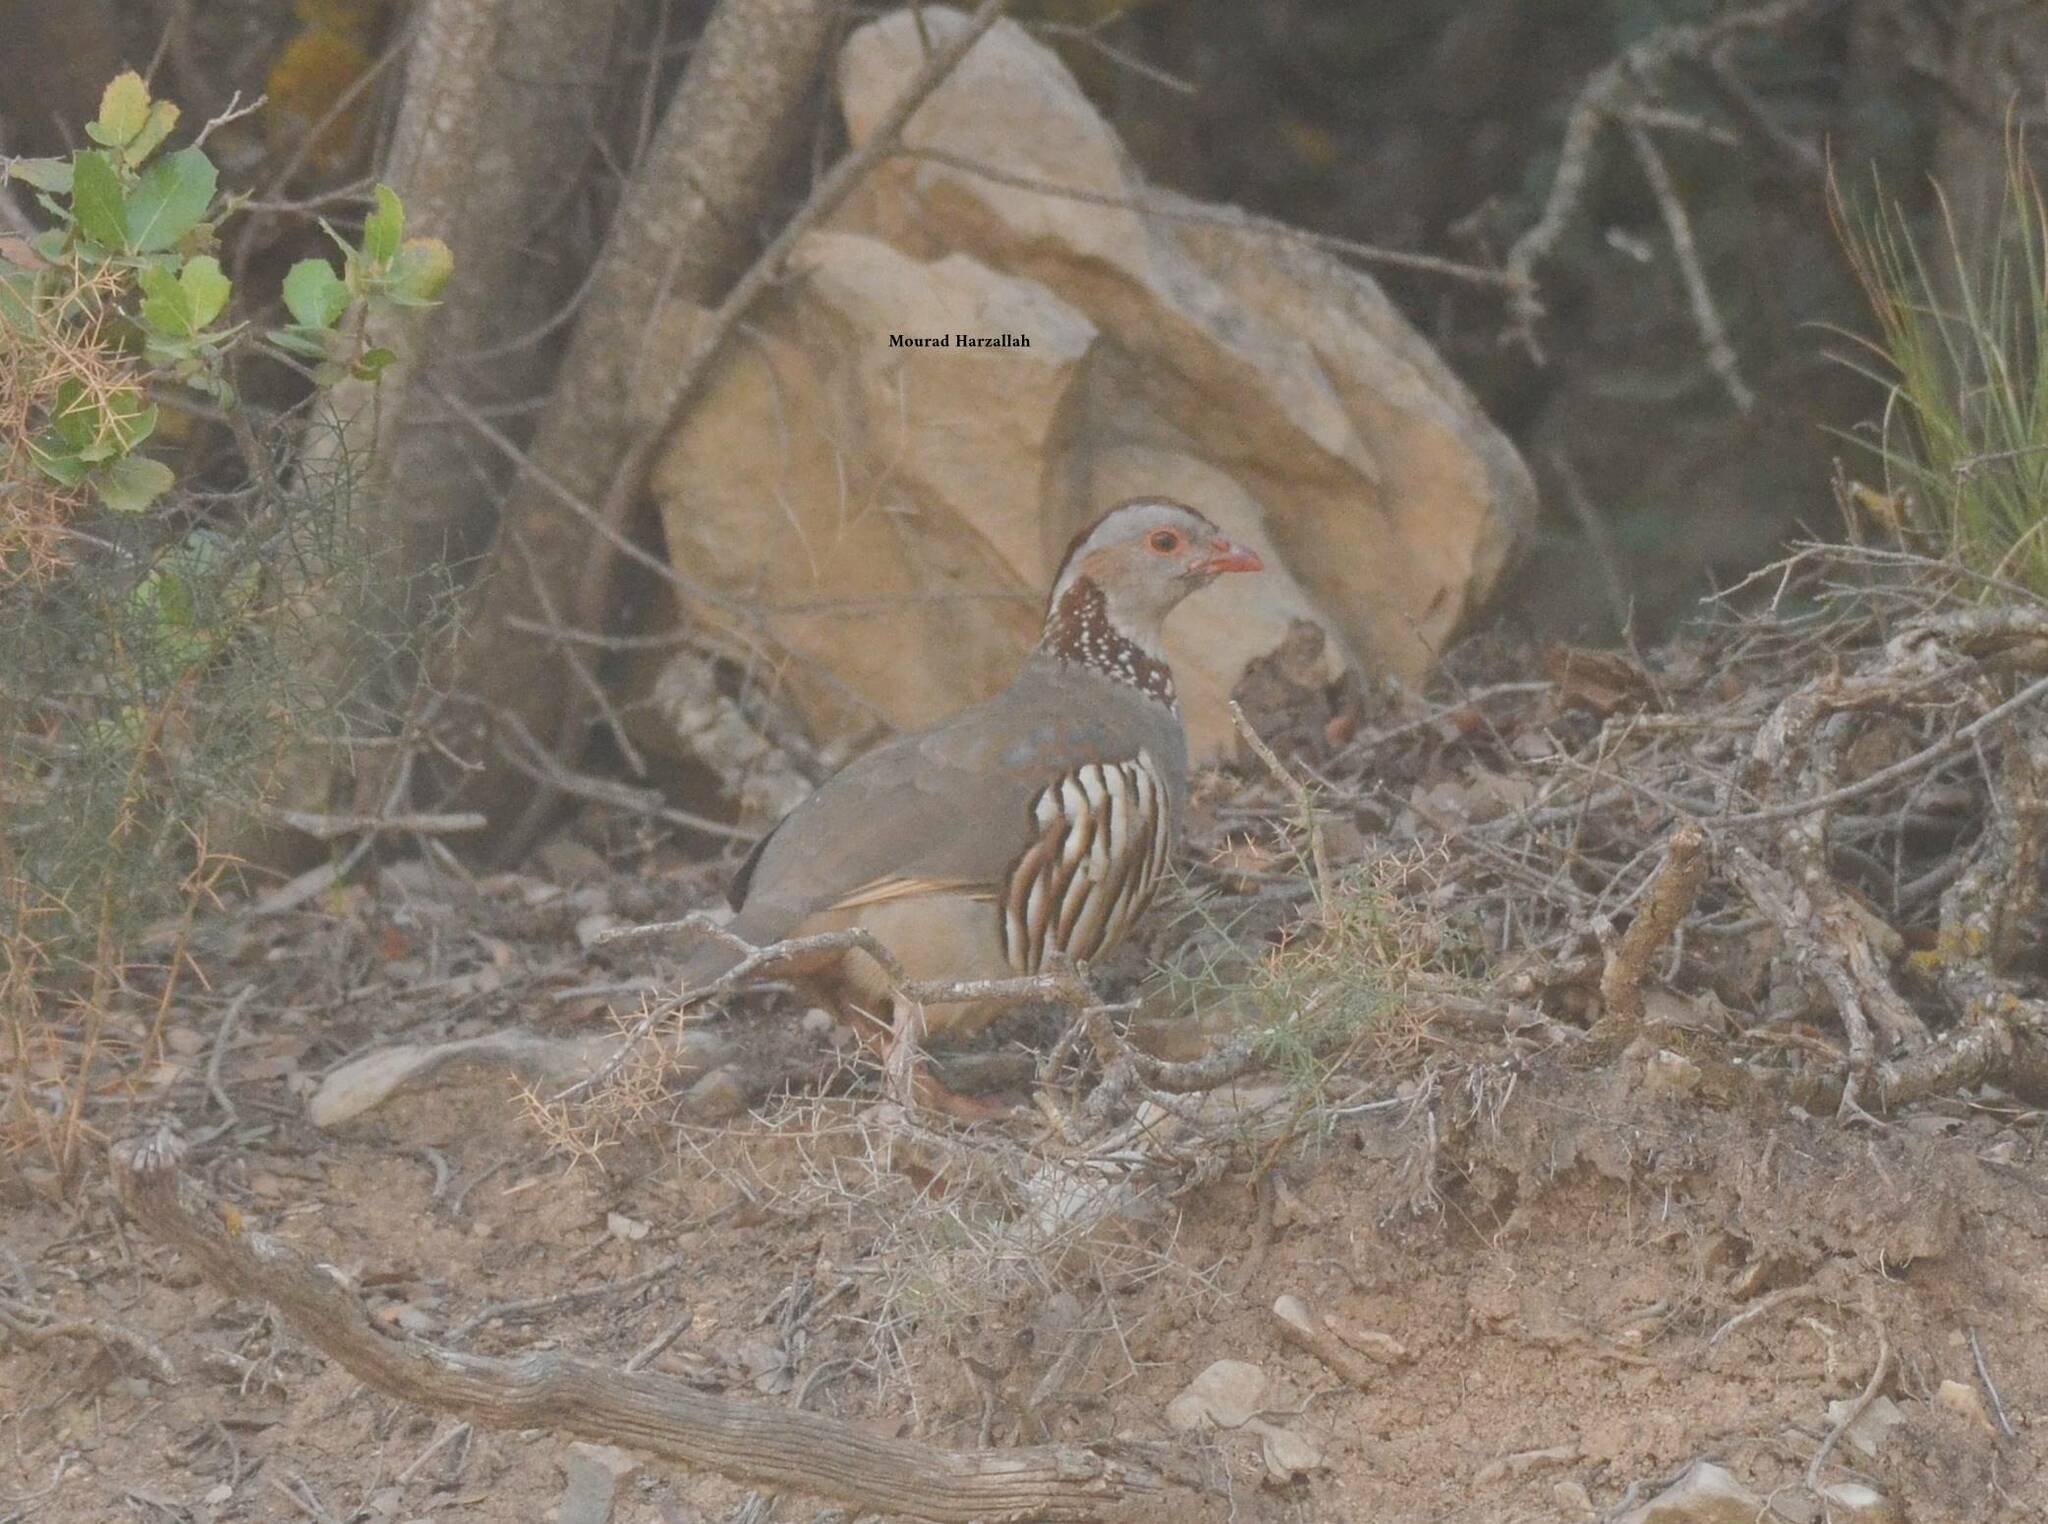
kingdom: Animalia
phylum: Chordata
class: Aves
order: Galliformes
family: Phasianidae
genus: Alectoris
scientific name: Alectoris barbara
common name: Barbary partridge
